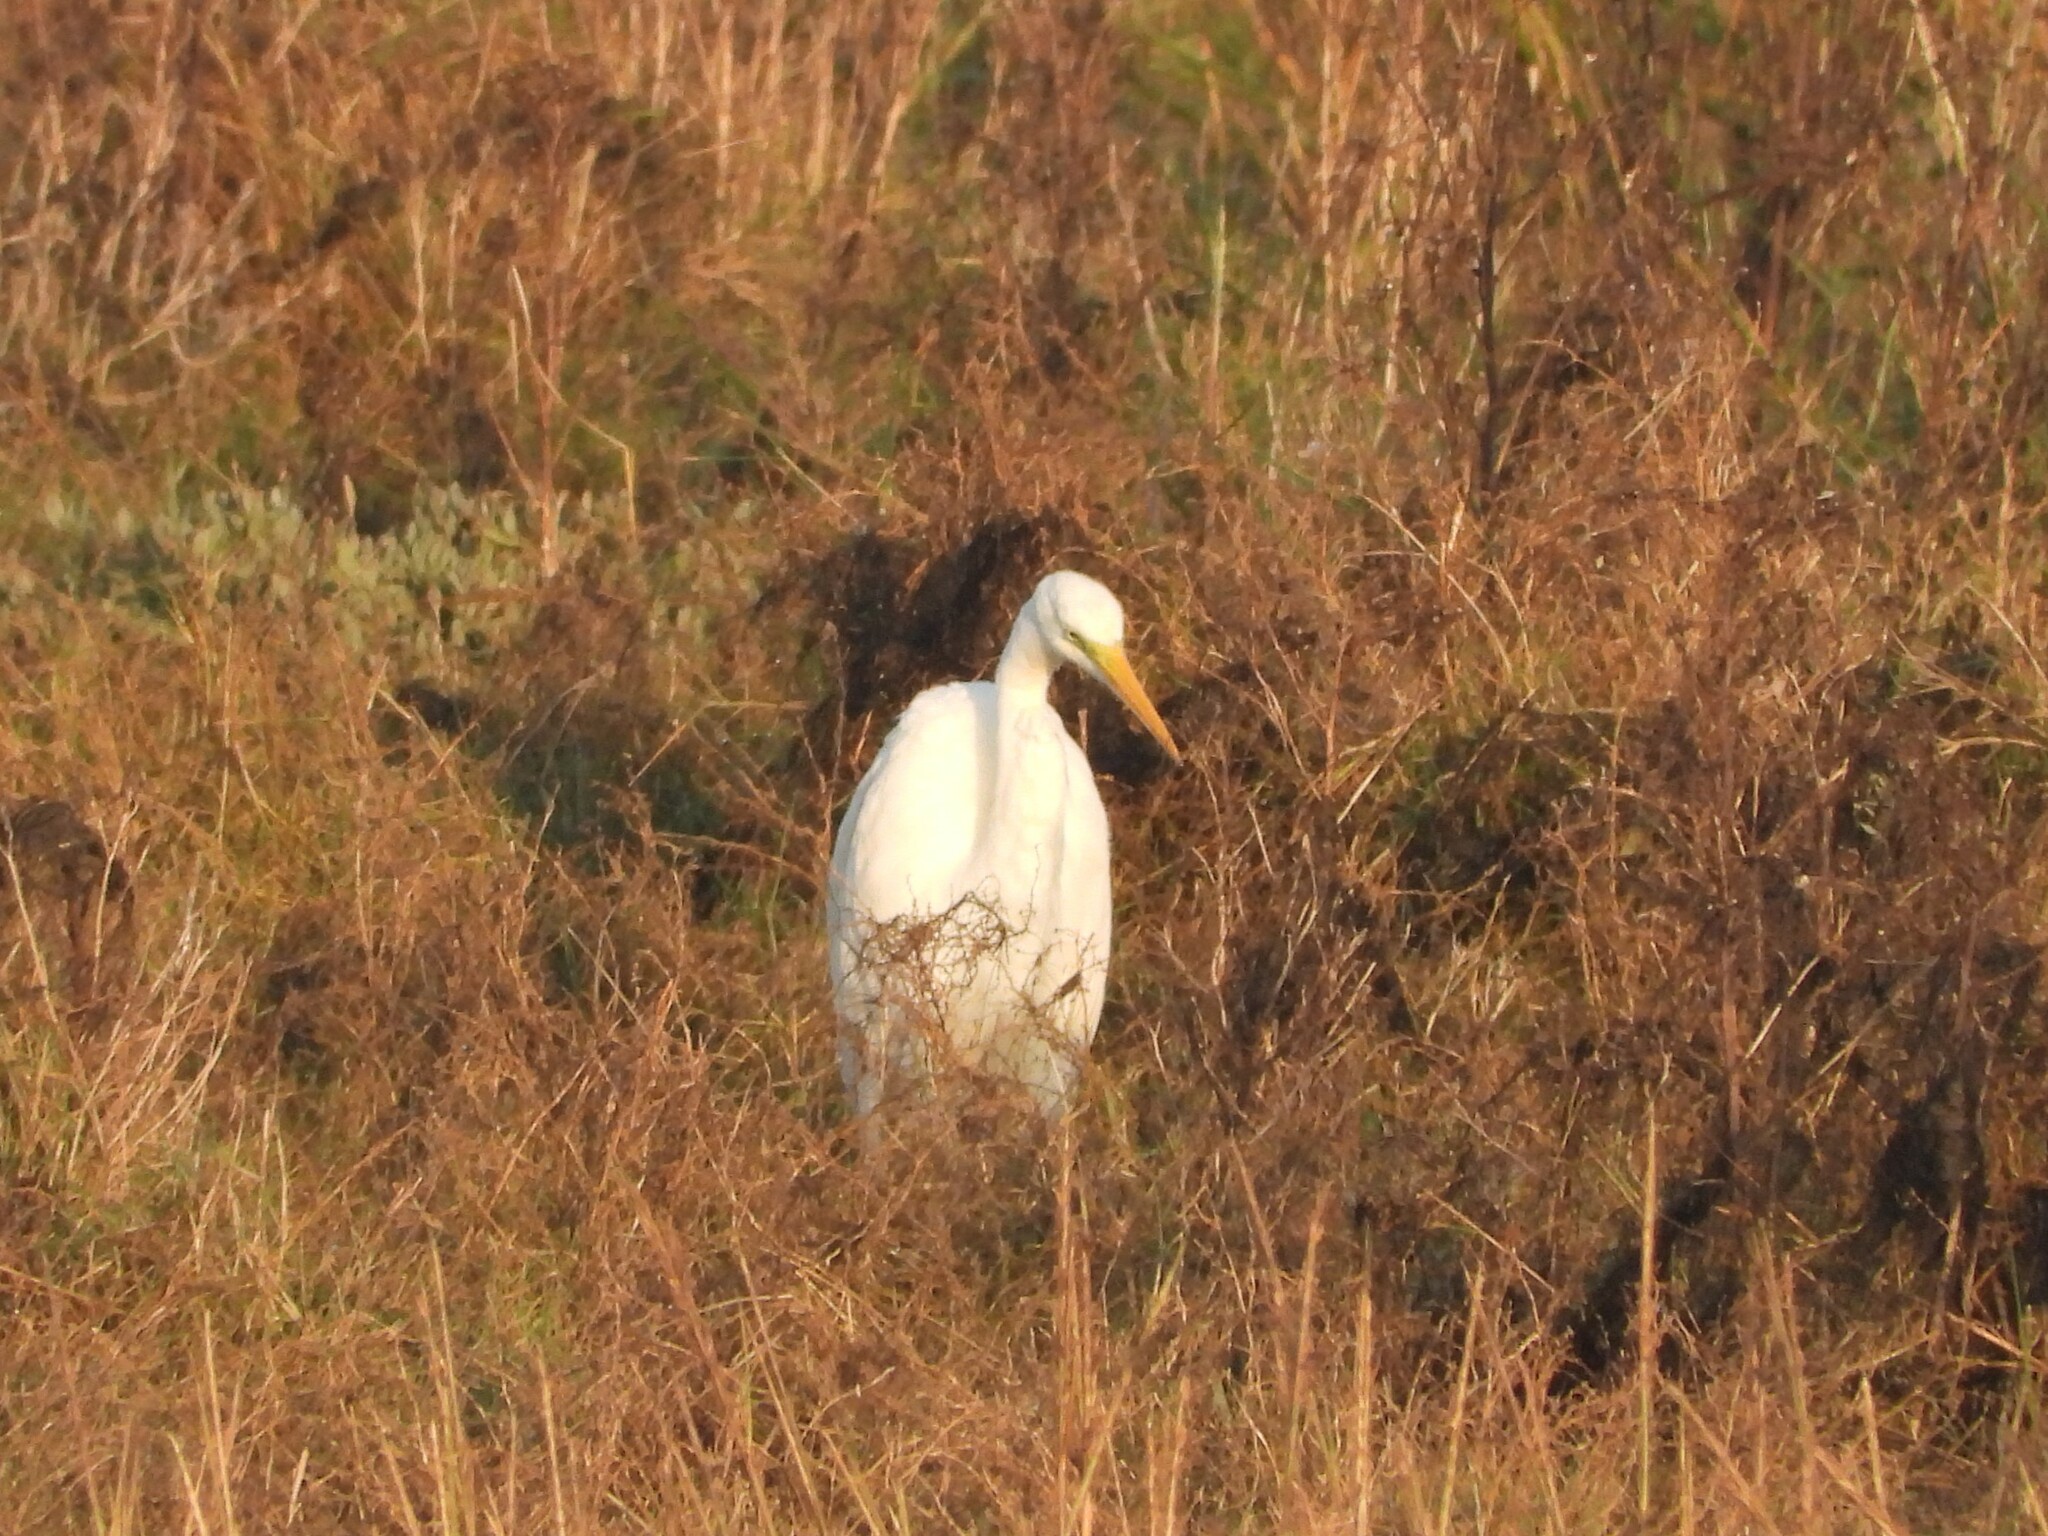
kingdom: Animalia
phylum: Chordata
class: Aves
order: Pelecaniformes
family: Ardeidae
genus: Ardea
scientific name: Ardea alba
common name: Great egret
